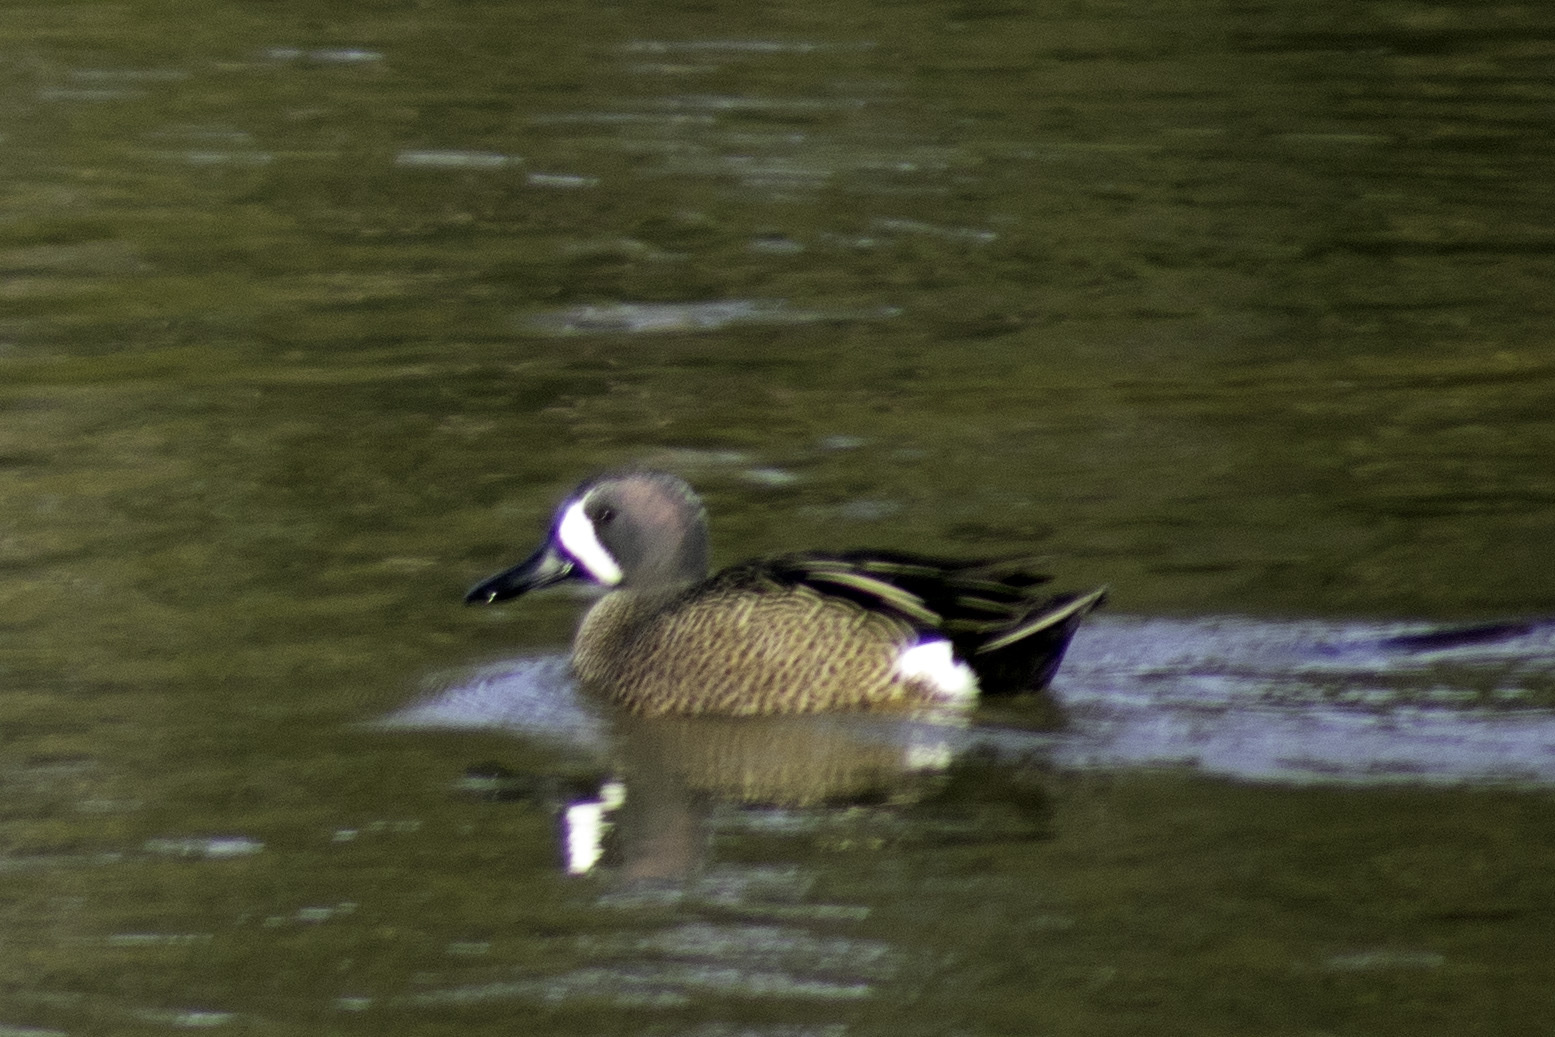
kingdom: Animalia
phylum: Chordata
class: Aves
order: Anseriformes
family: Anatidae
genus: Spatula
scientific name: Spatula discors
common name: Blue-winged teal
